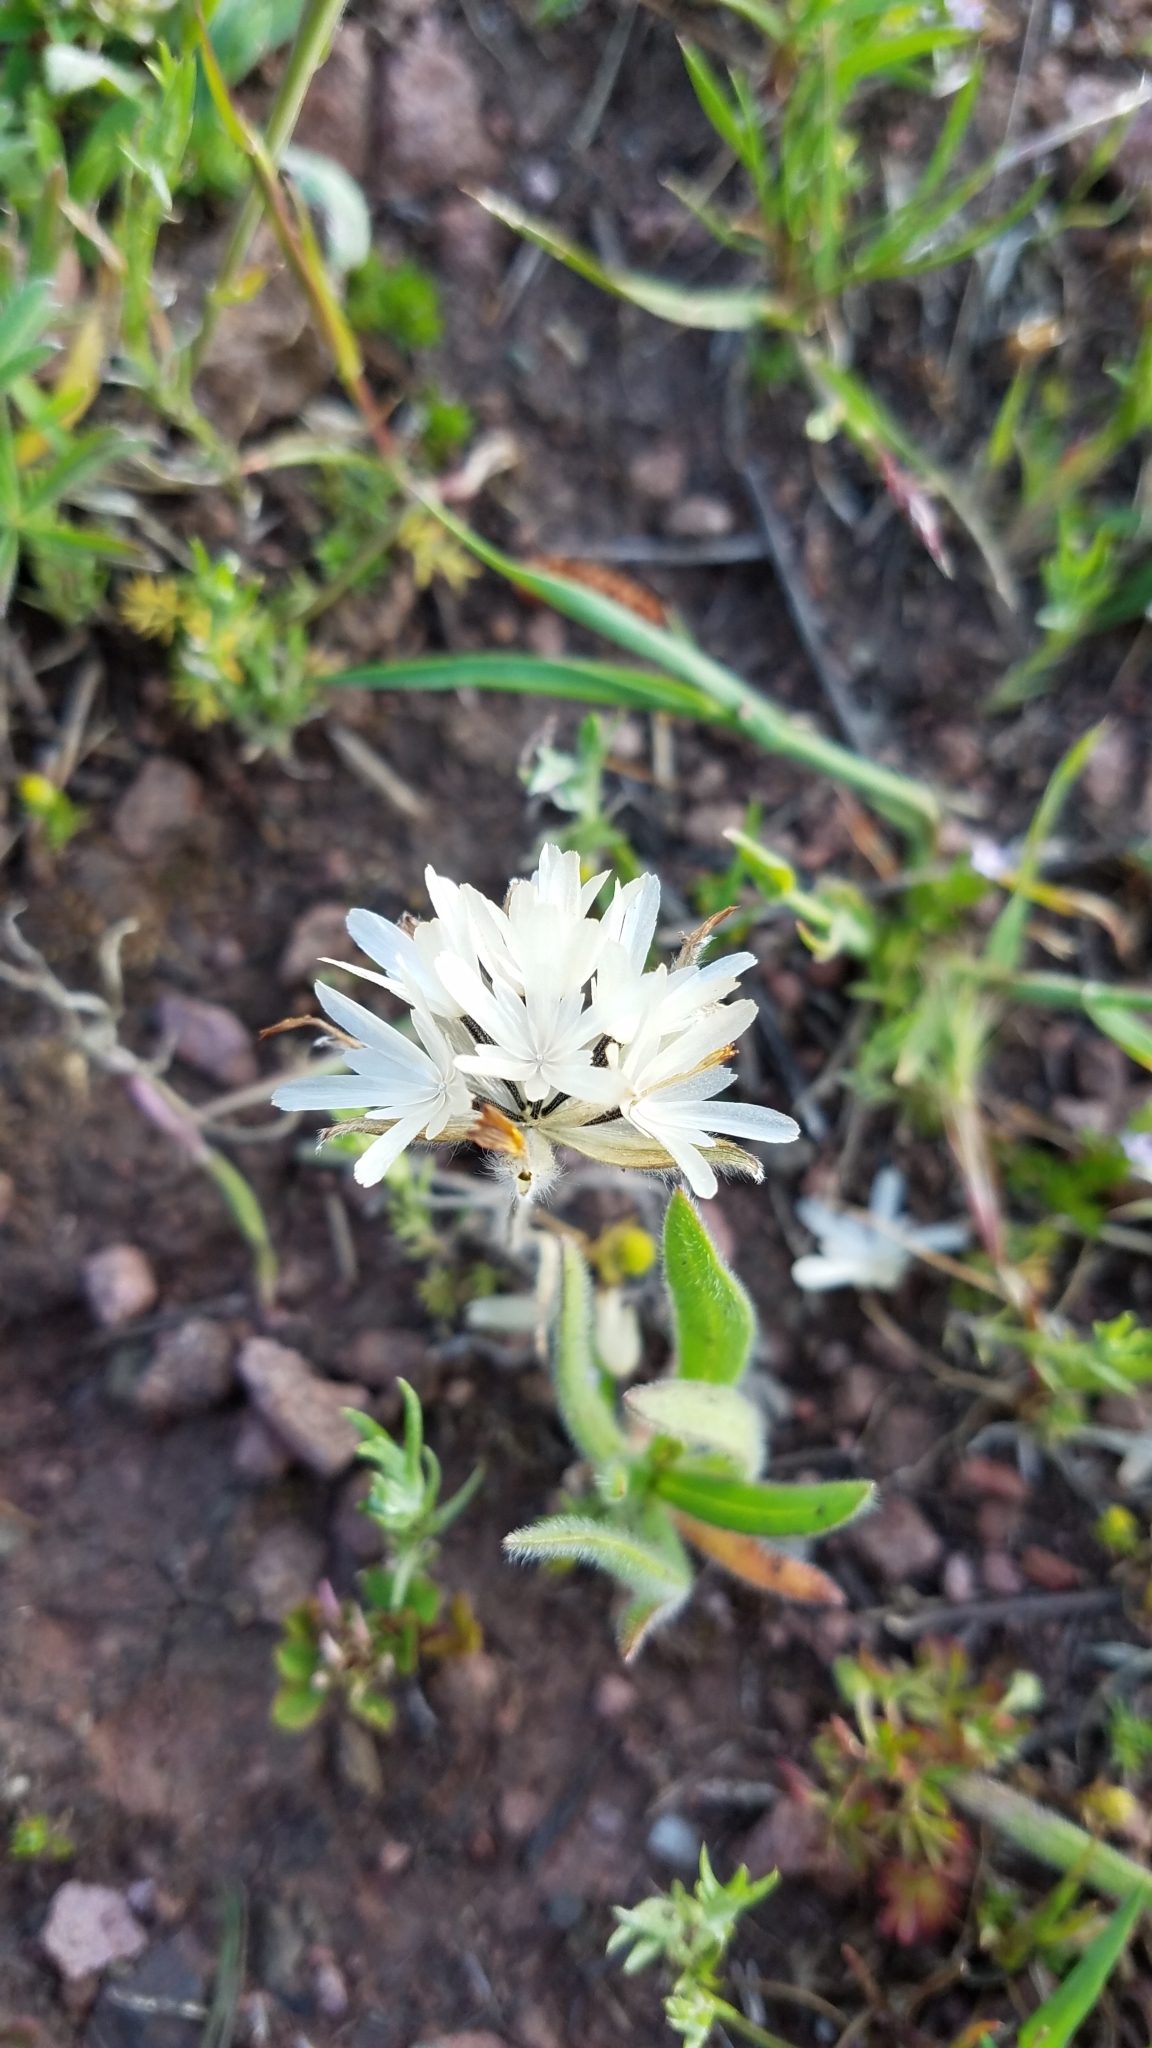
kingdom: Plantae
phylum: Tracheophyta
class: Magnoliopsida
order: Asterales
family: Asteraceae
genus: Achyrachaena
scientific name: Achyrachaena mollis
